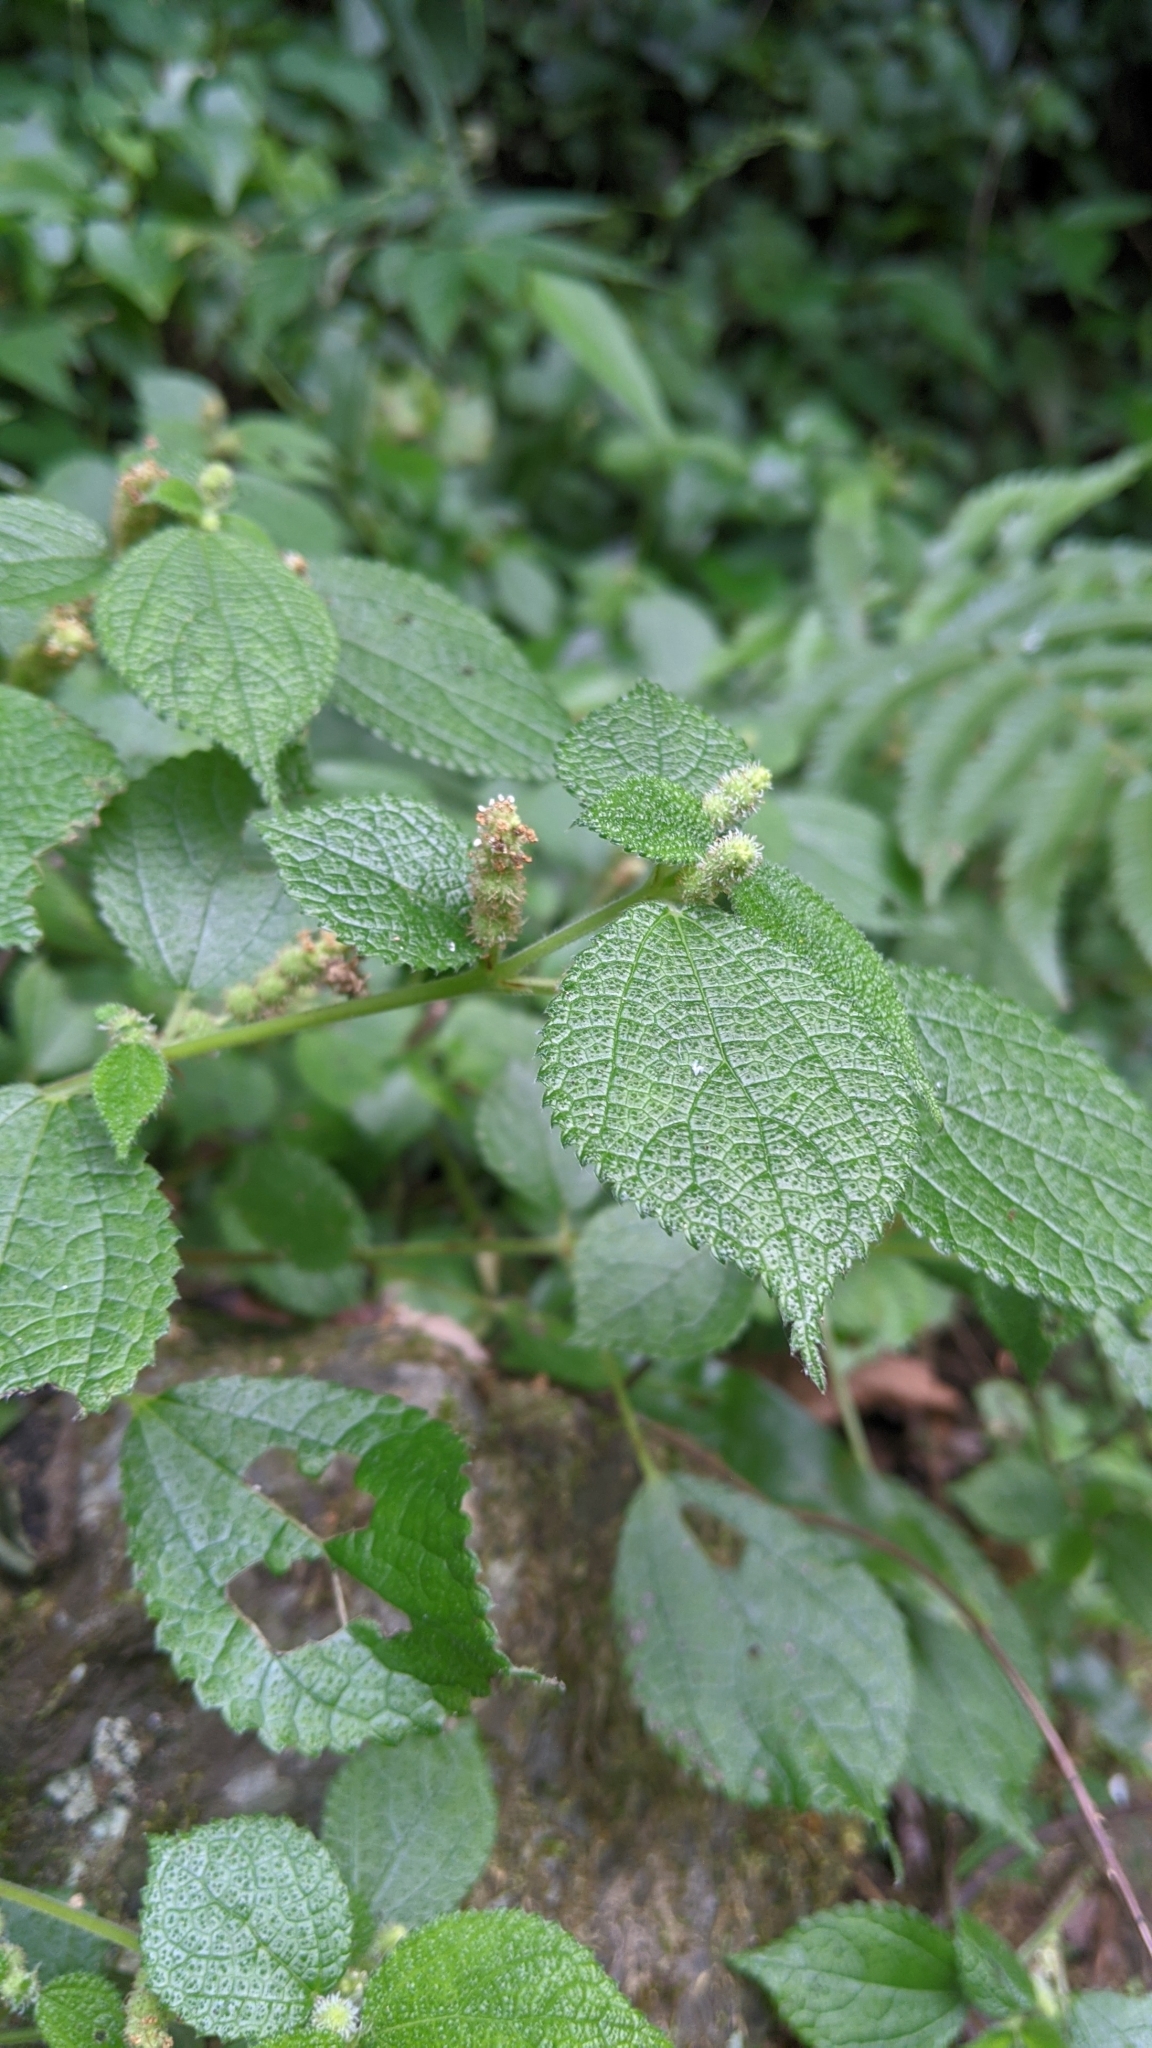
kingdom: Plantae
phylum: Tracheophyta
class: Magnoliopsida
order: Rosales
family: Urticaceae
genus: Boehmeria
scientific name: Boehmeria pilosiuscula
